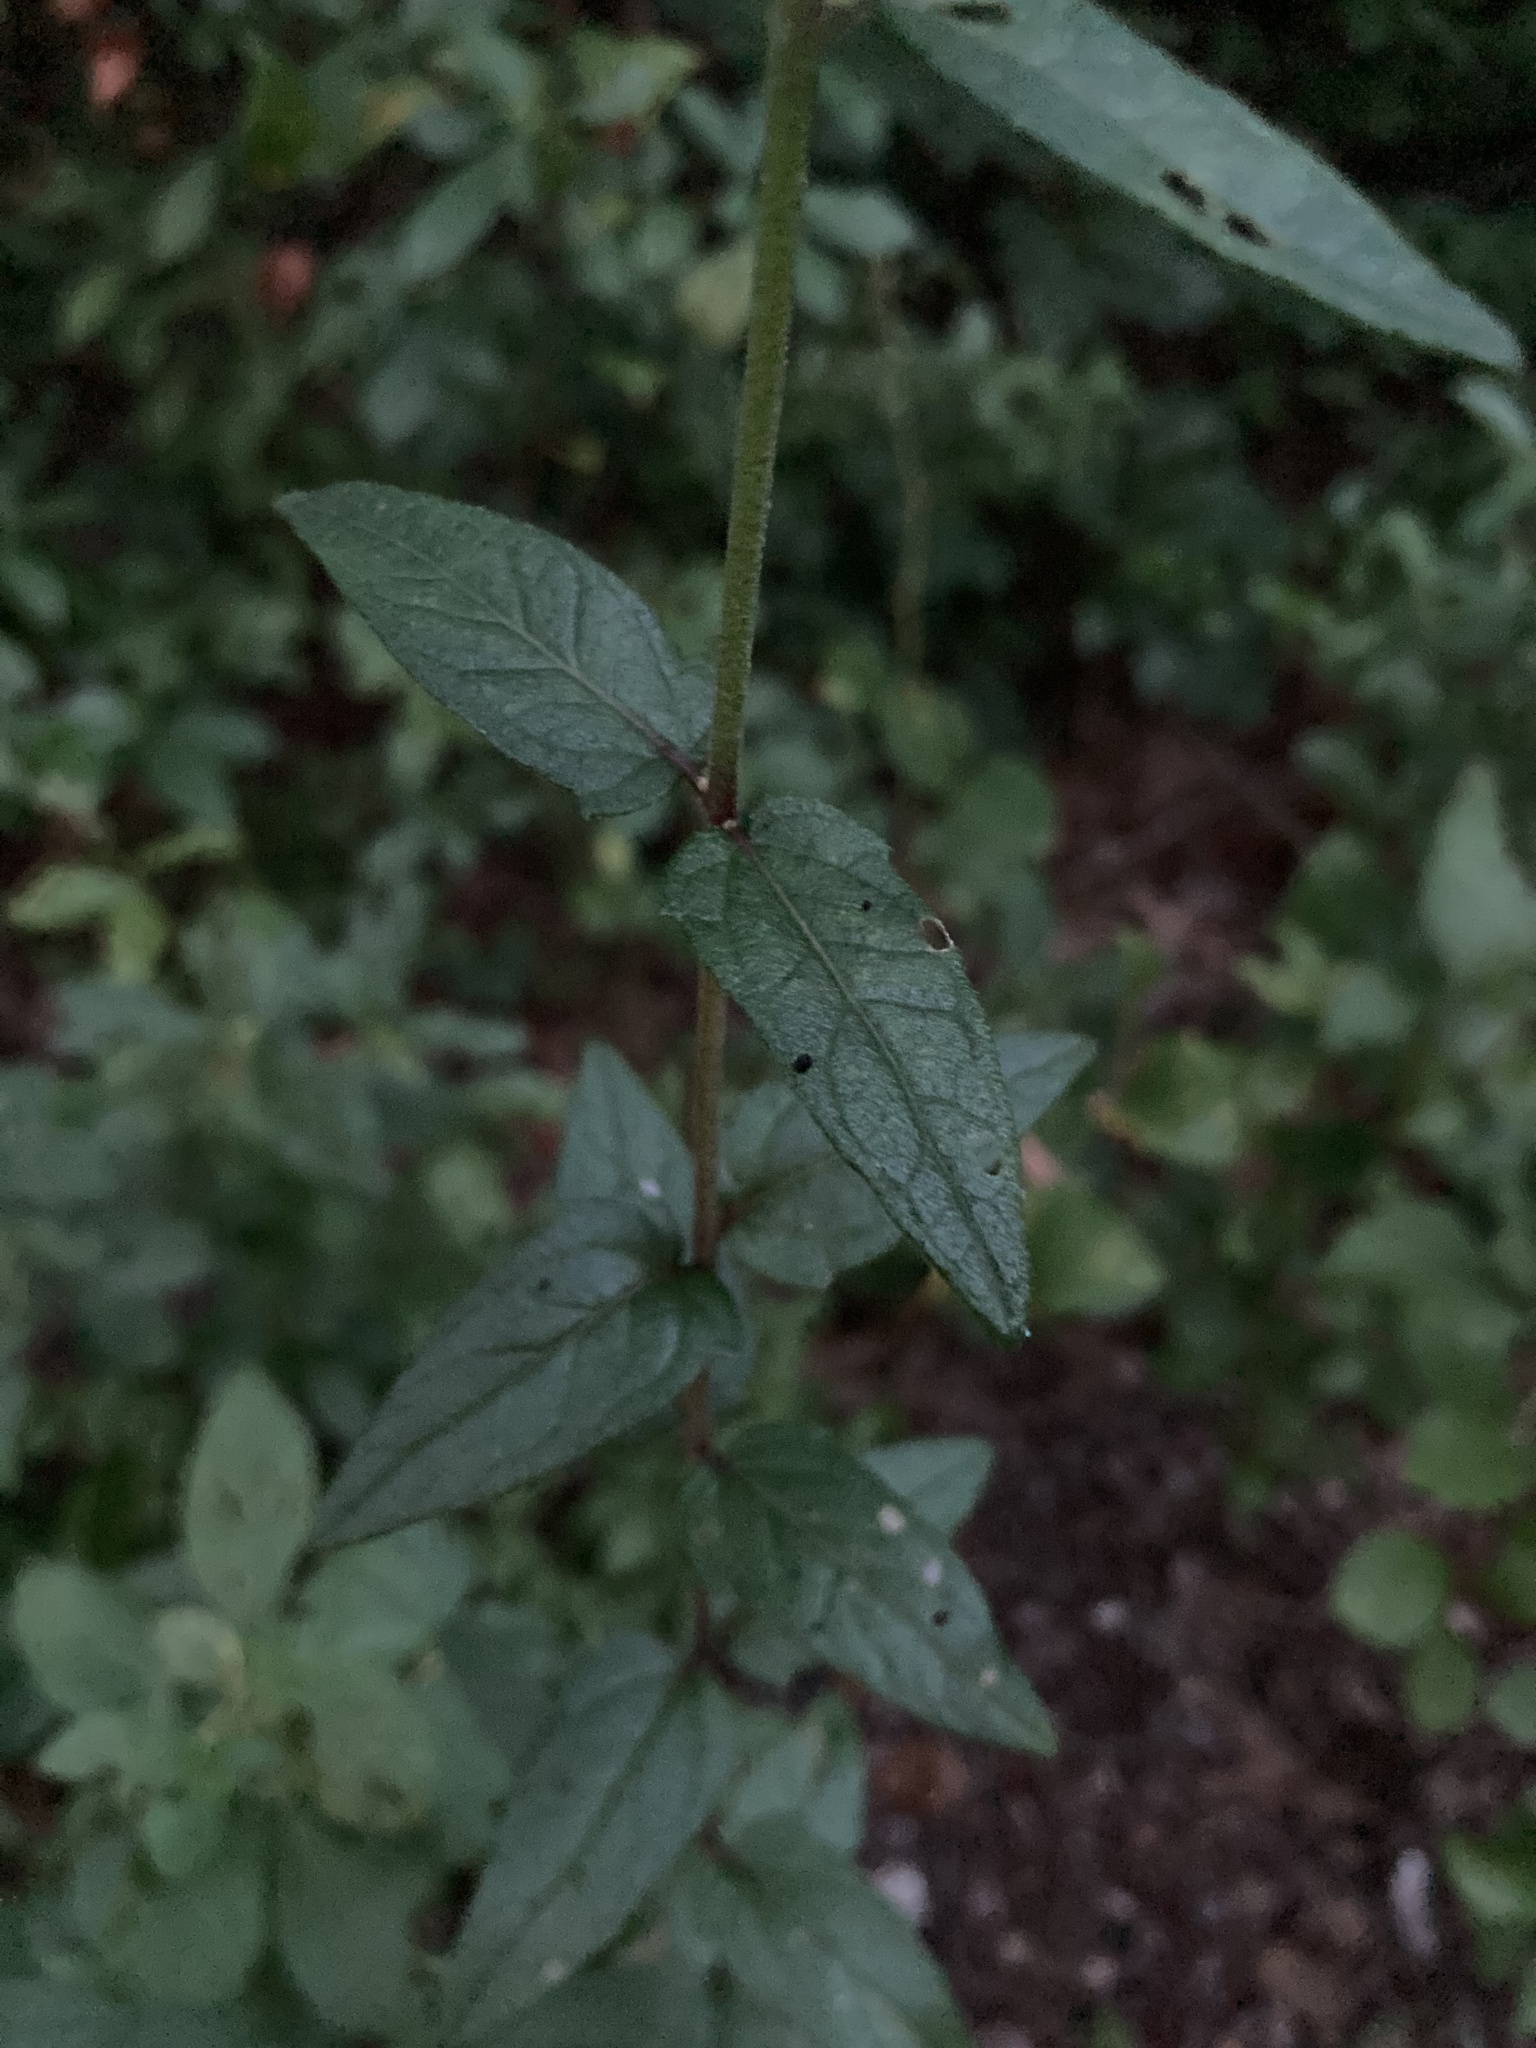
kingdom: Plantae
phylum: Tracheophyta
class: Magnoliopsida
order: Asterales
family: Asteraceae
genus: Eupatorium
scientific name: Eupatorium pilosum
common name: Rough boneset
